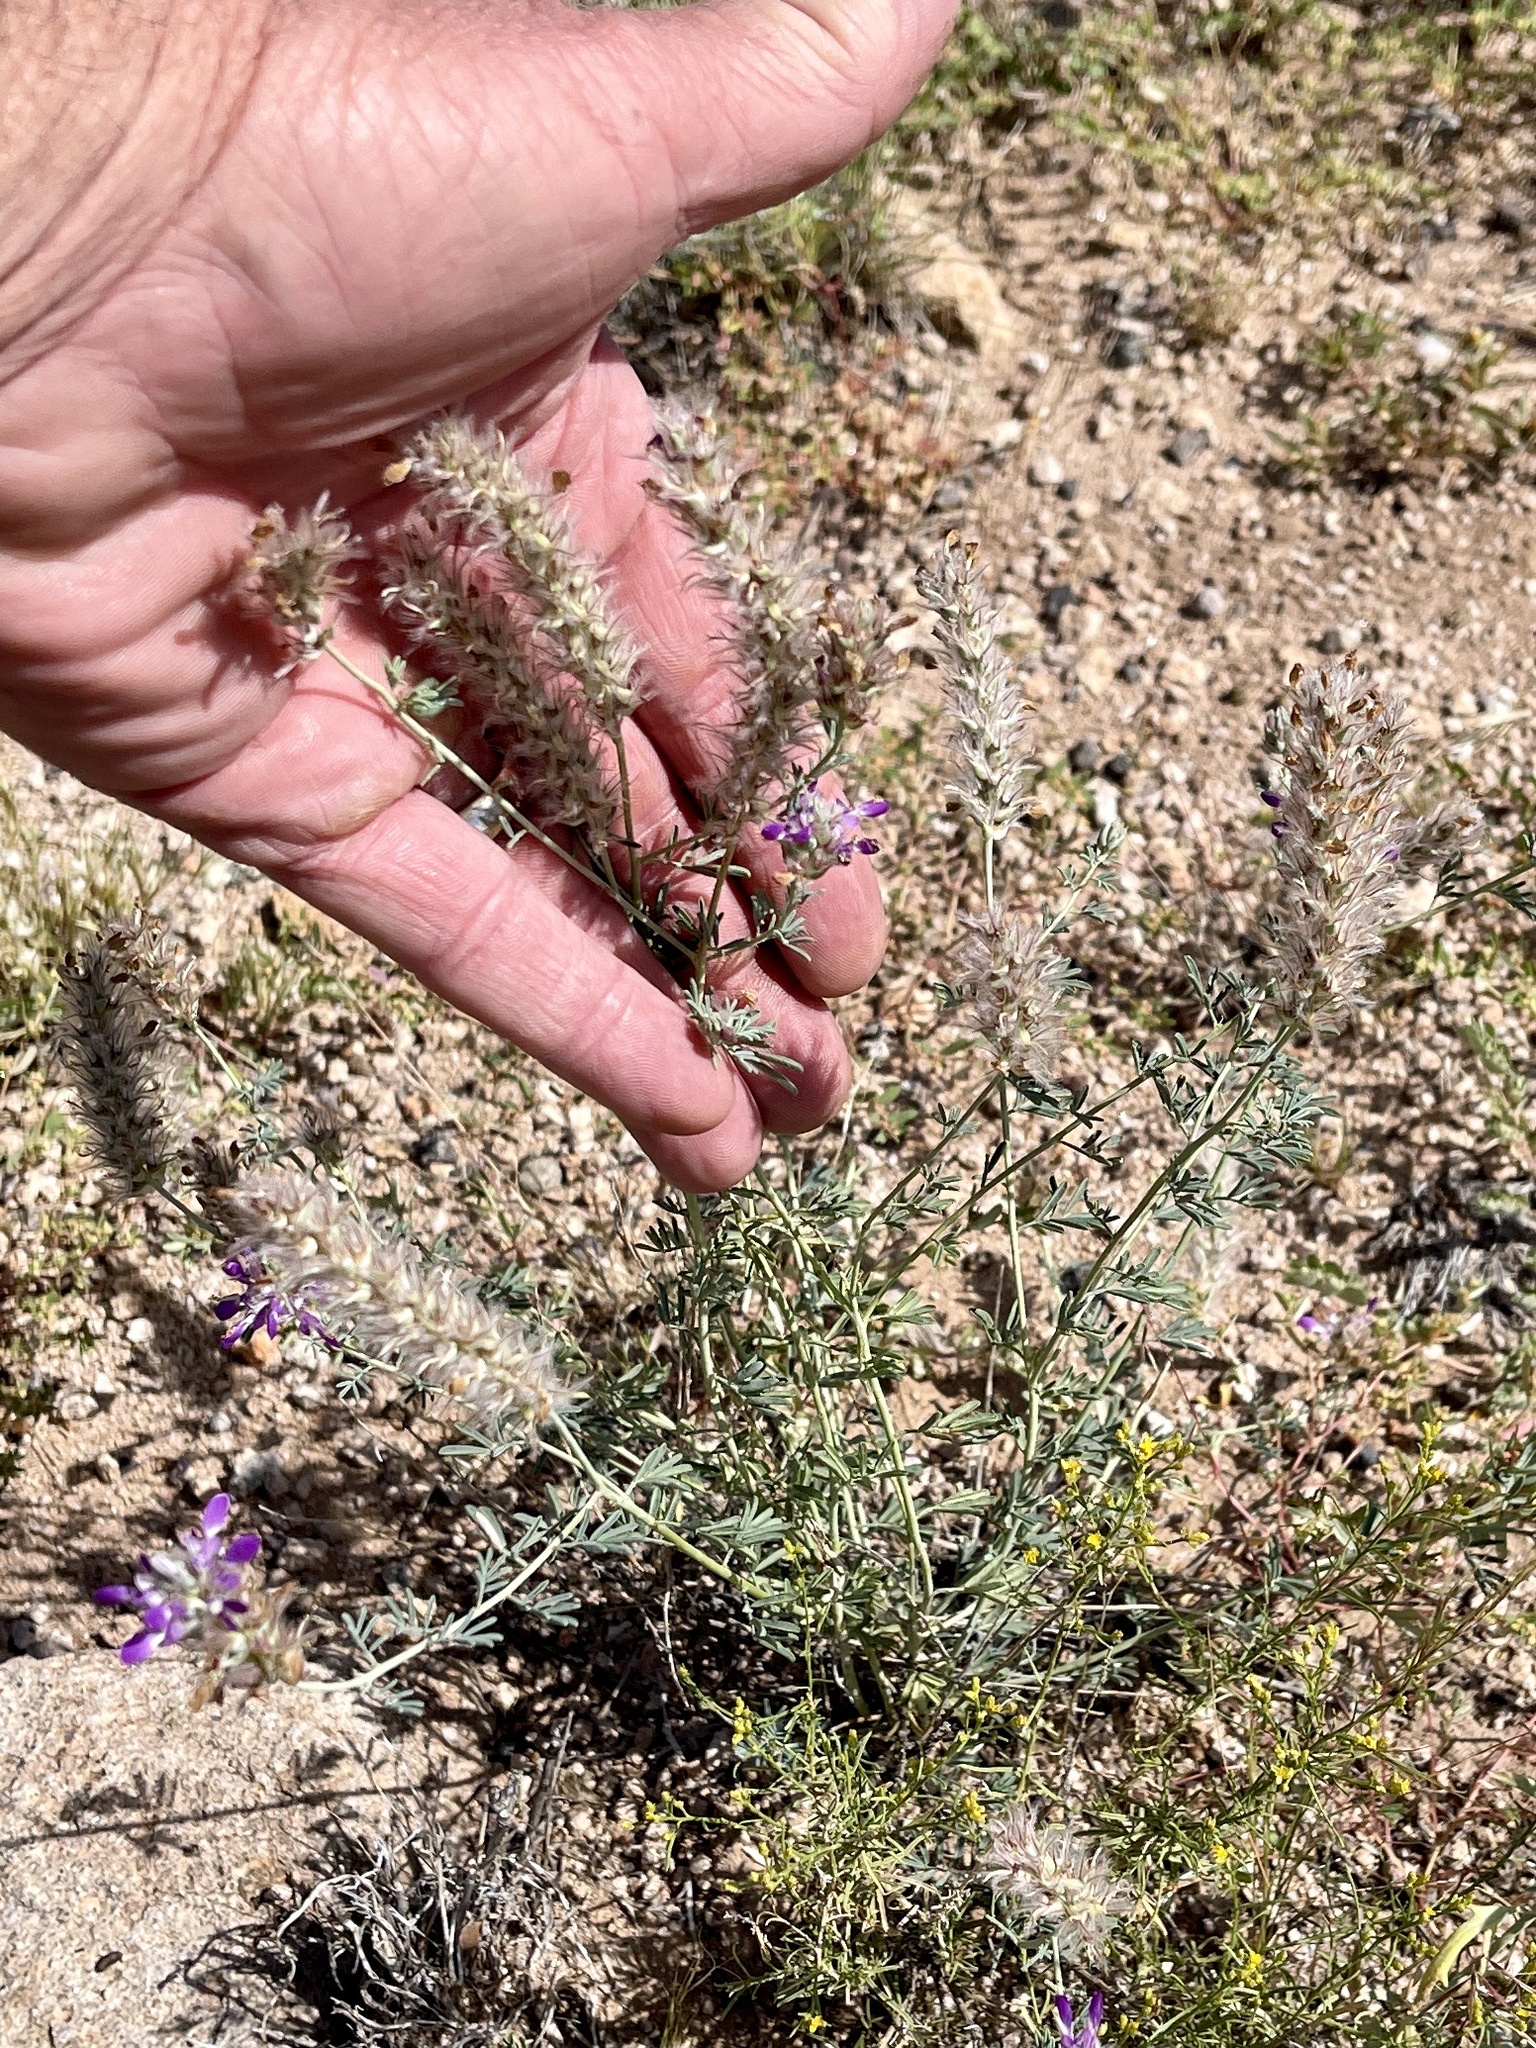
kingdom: Plantae
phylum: Tracheophyta
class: Magnoliopsida
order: Fabales
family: Fabaceae
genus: Dalea
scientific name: Dalea pogonathera
